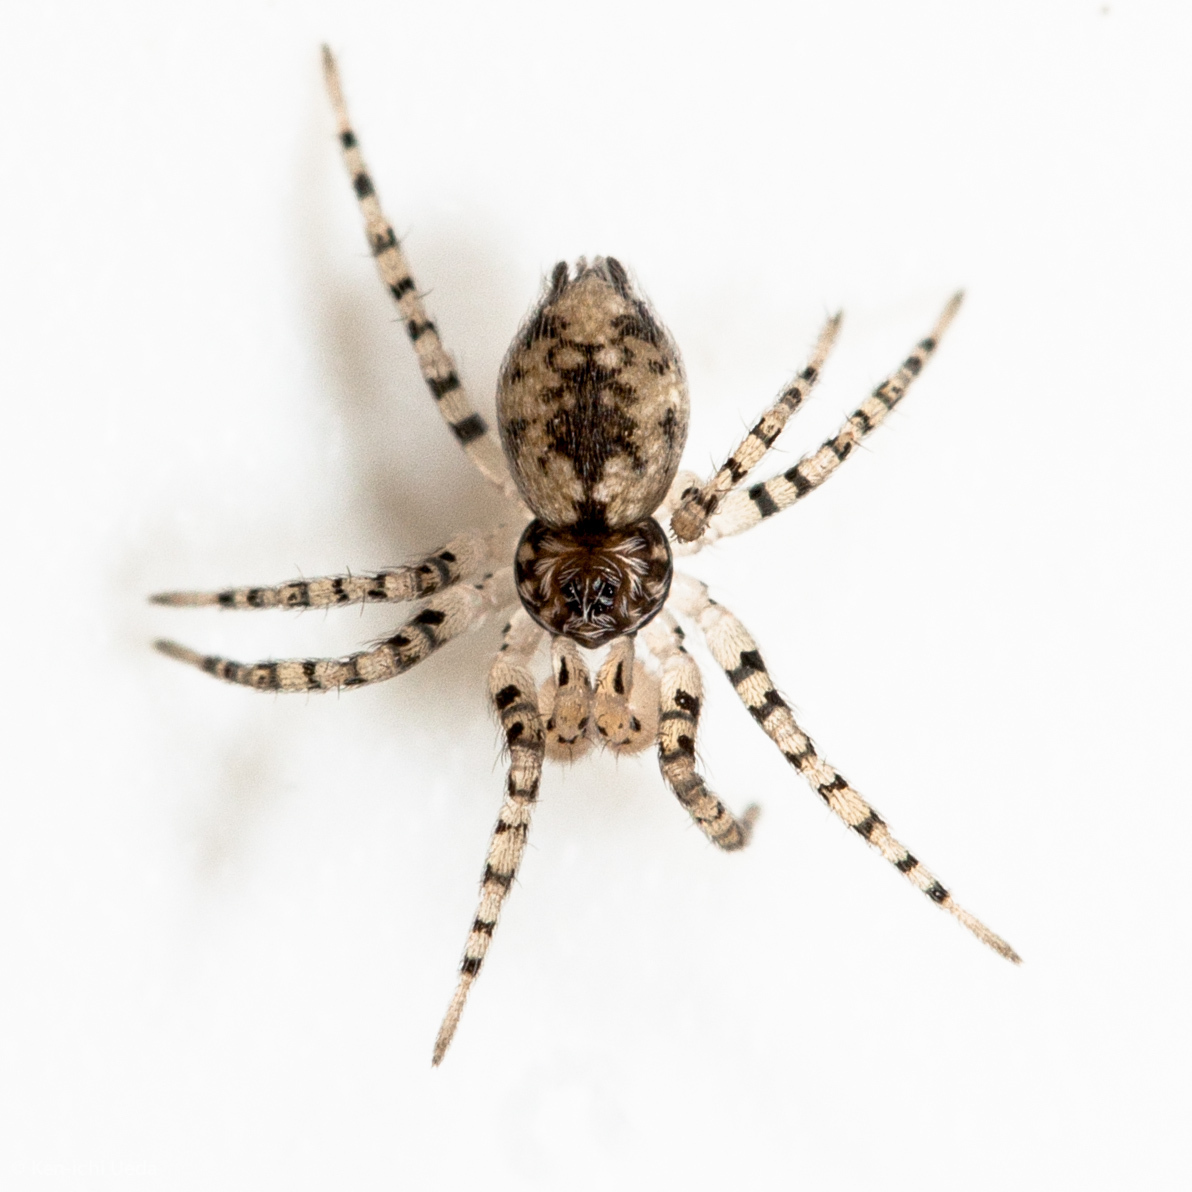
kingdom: Animalia
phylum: Arthropoda
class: Arachnida
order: Araneae
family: Oecobiidae
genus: Oecobius
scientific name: Oecobius navus
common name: Flatmesh weaver
